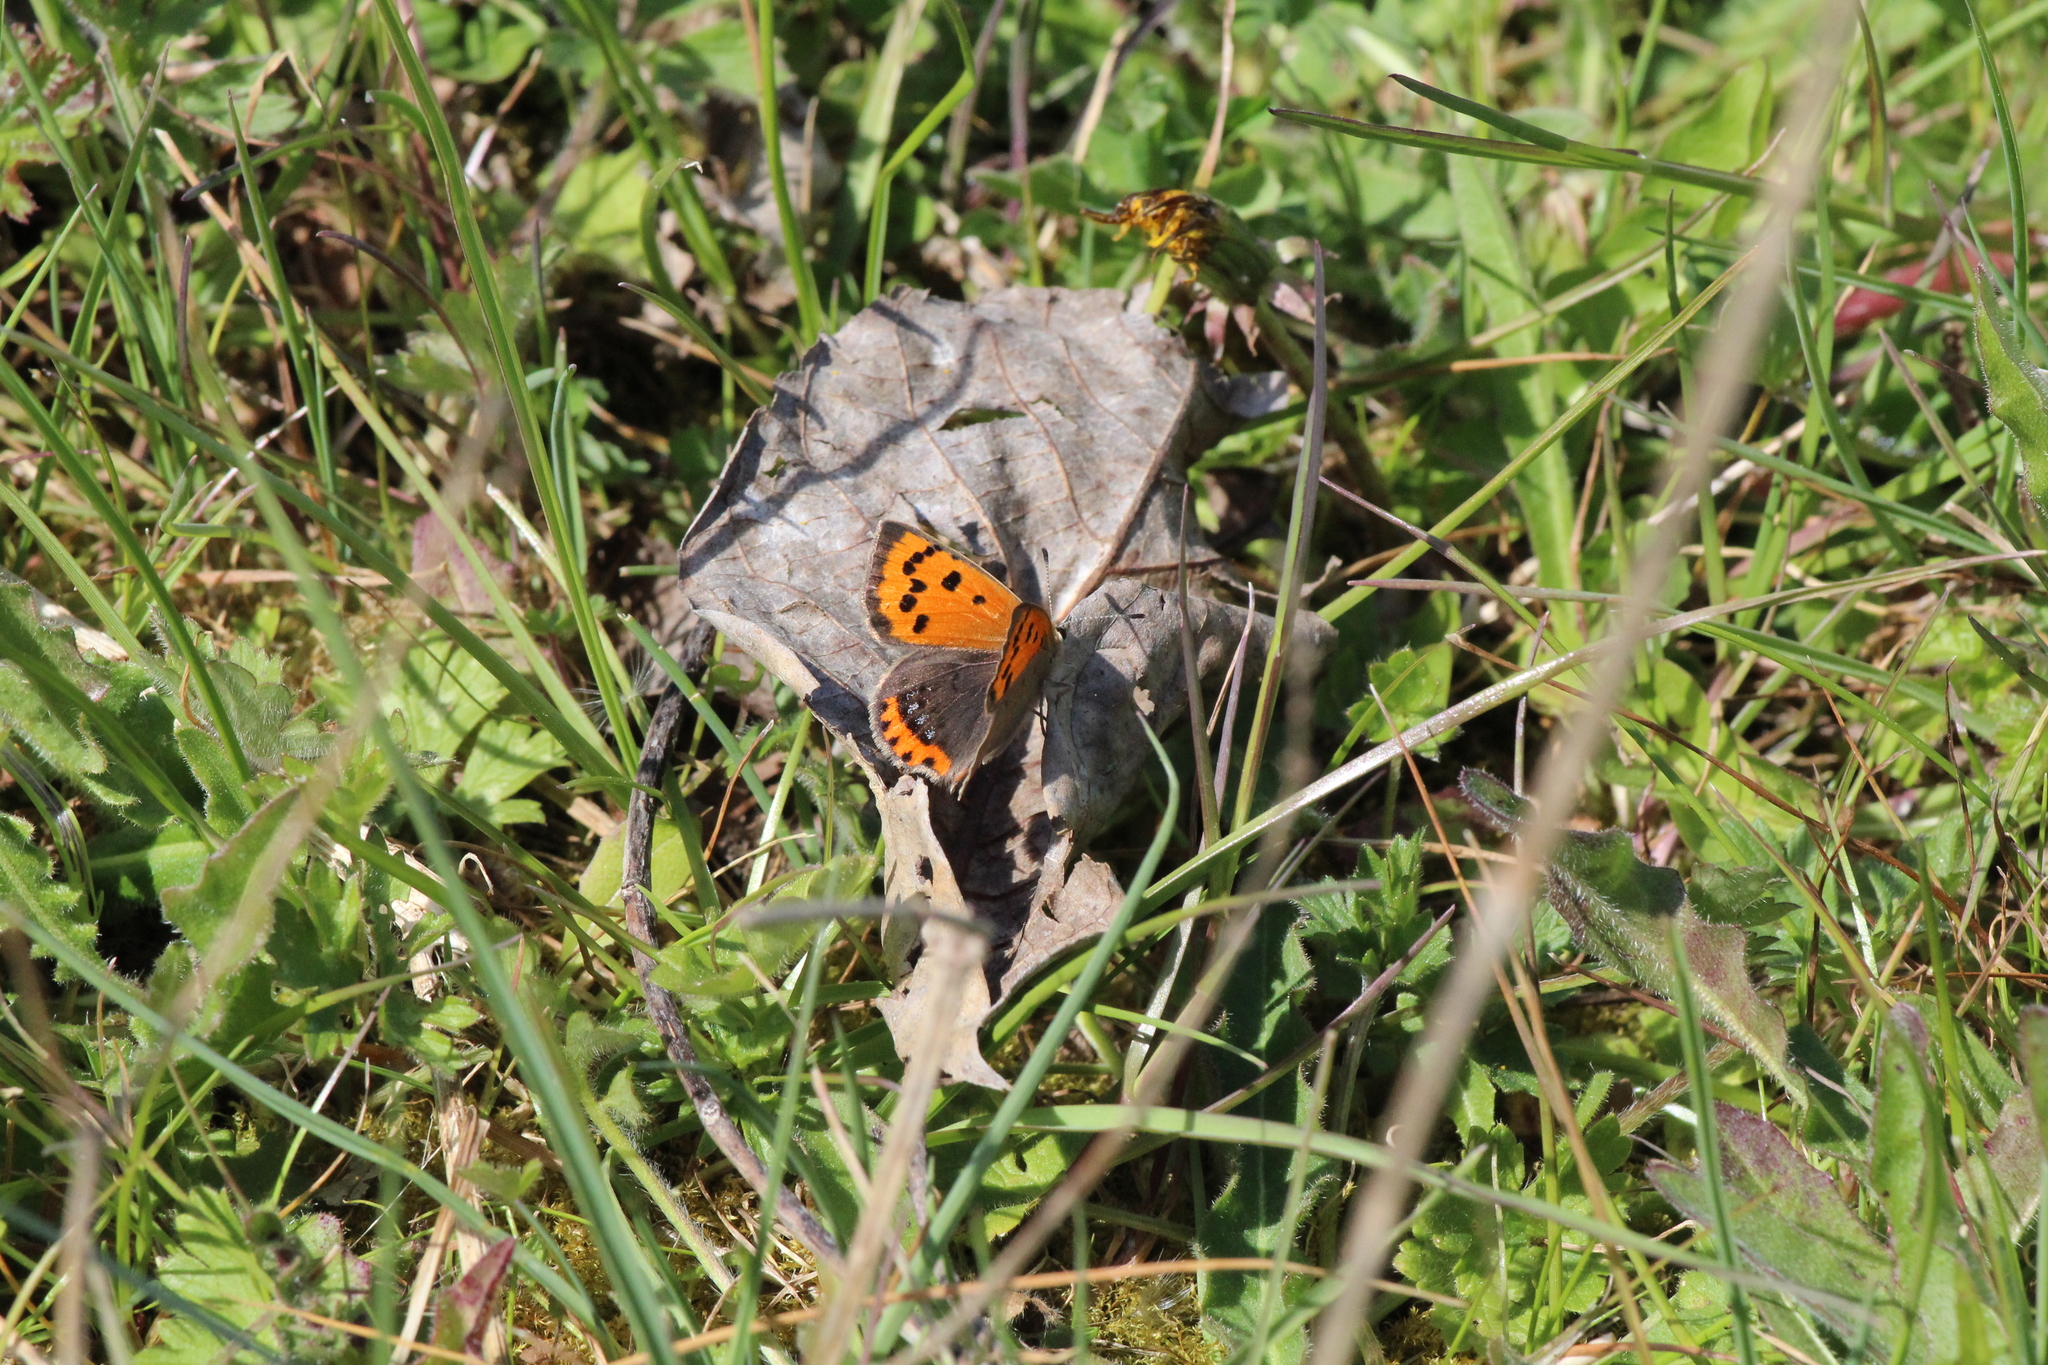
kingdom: Animalia
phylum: Arthropoda
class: Insecta
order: Lepidoptera
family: Lycaenidae
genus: Lycaena
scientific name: Lycaena phlaeas
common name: Small copper
